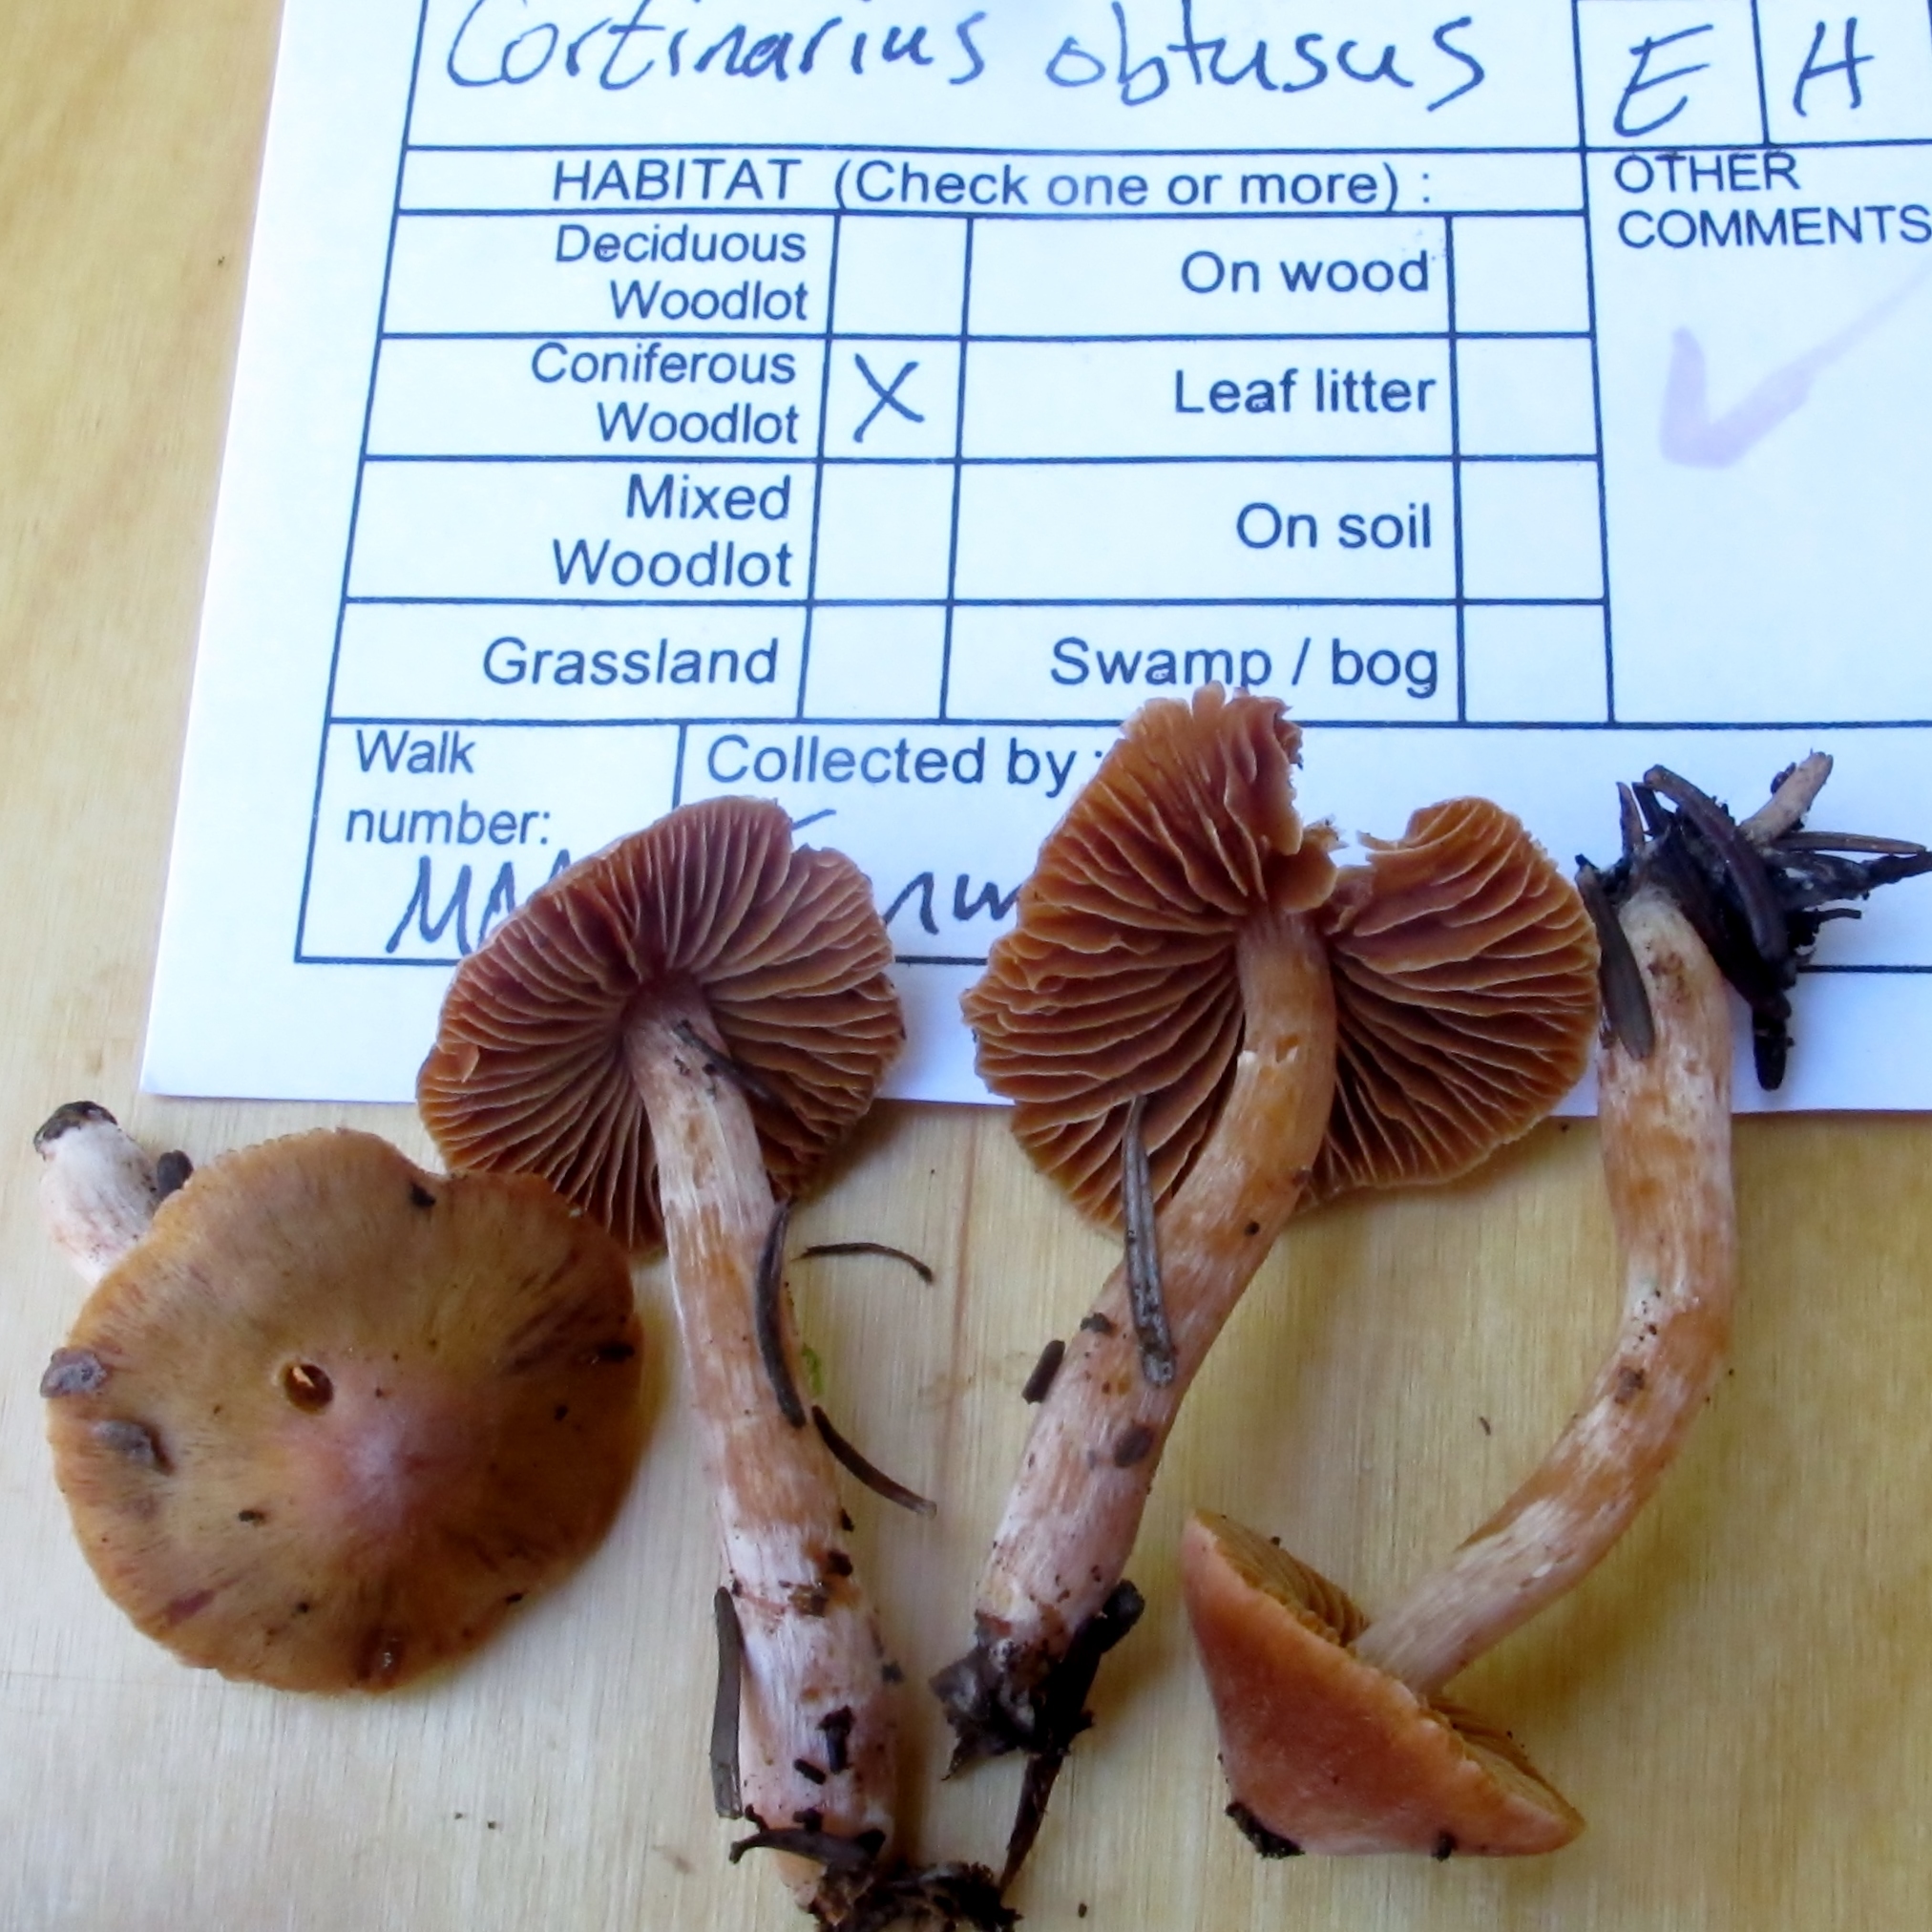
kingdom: Fungi
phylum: Basidiomycota
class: Agaricomycetes
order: Agaricales
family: Cortinariaceae
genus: Cortinarius
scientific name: Cortinarius obtusus
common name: Blunt webcap
